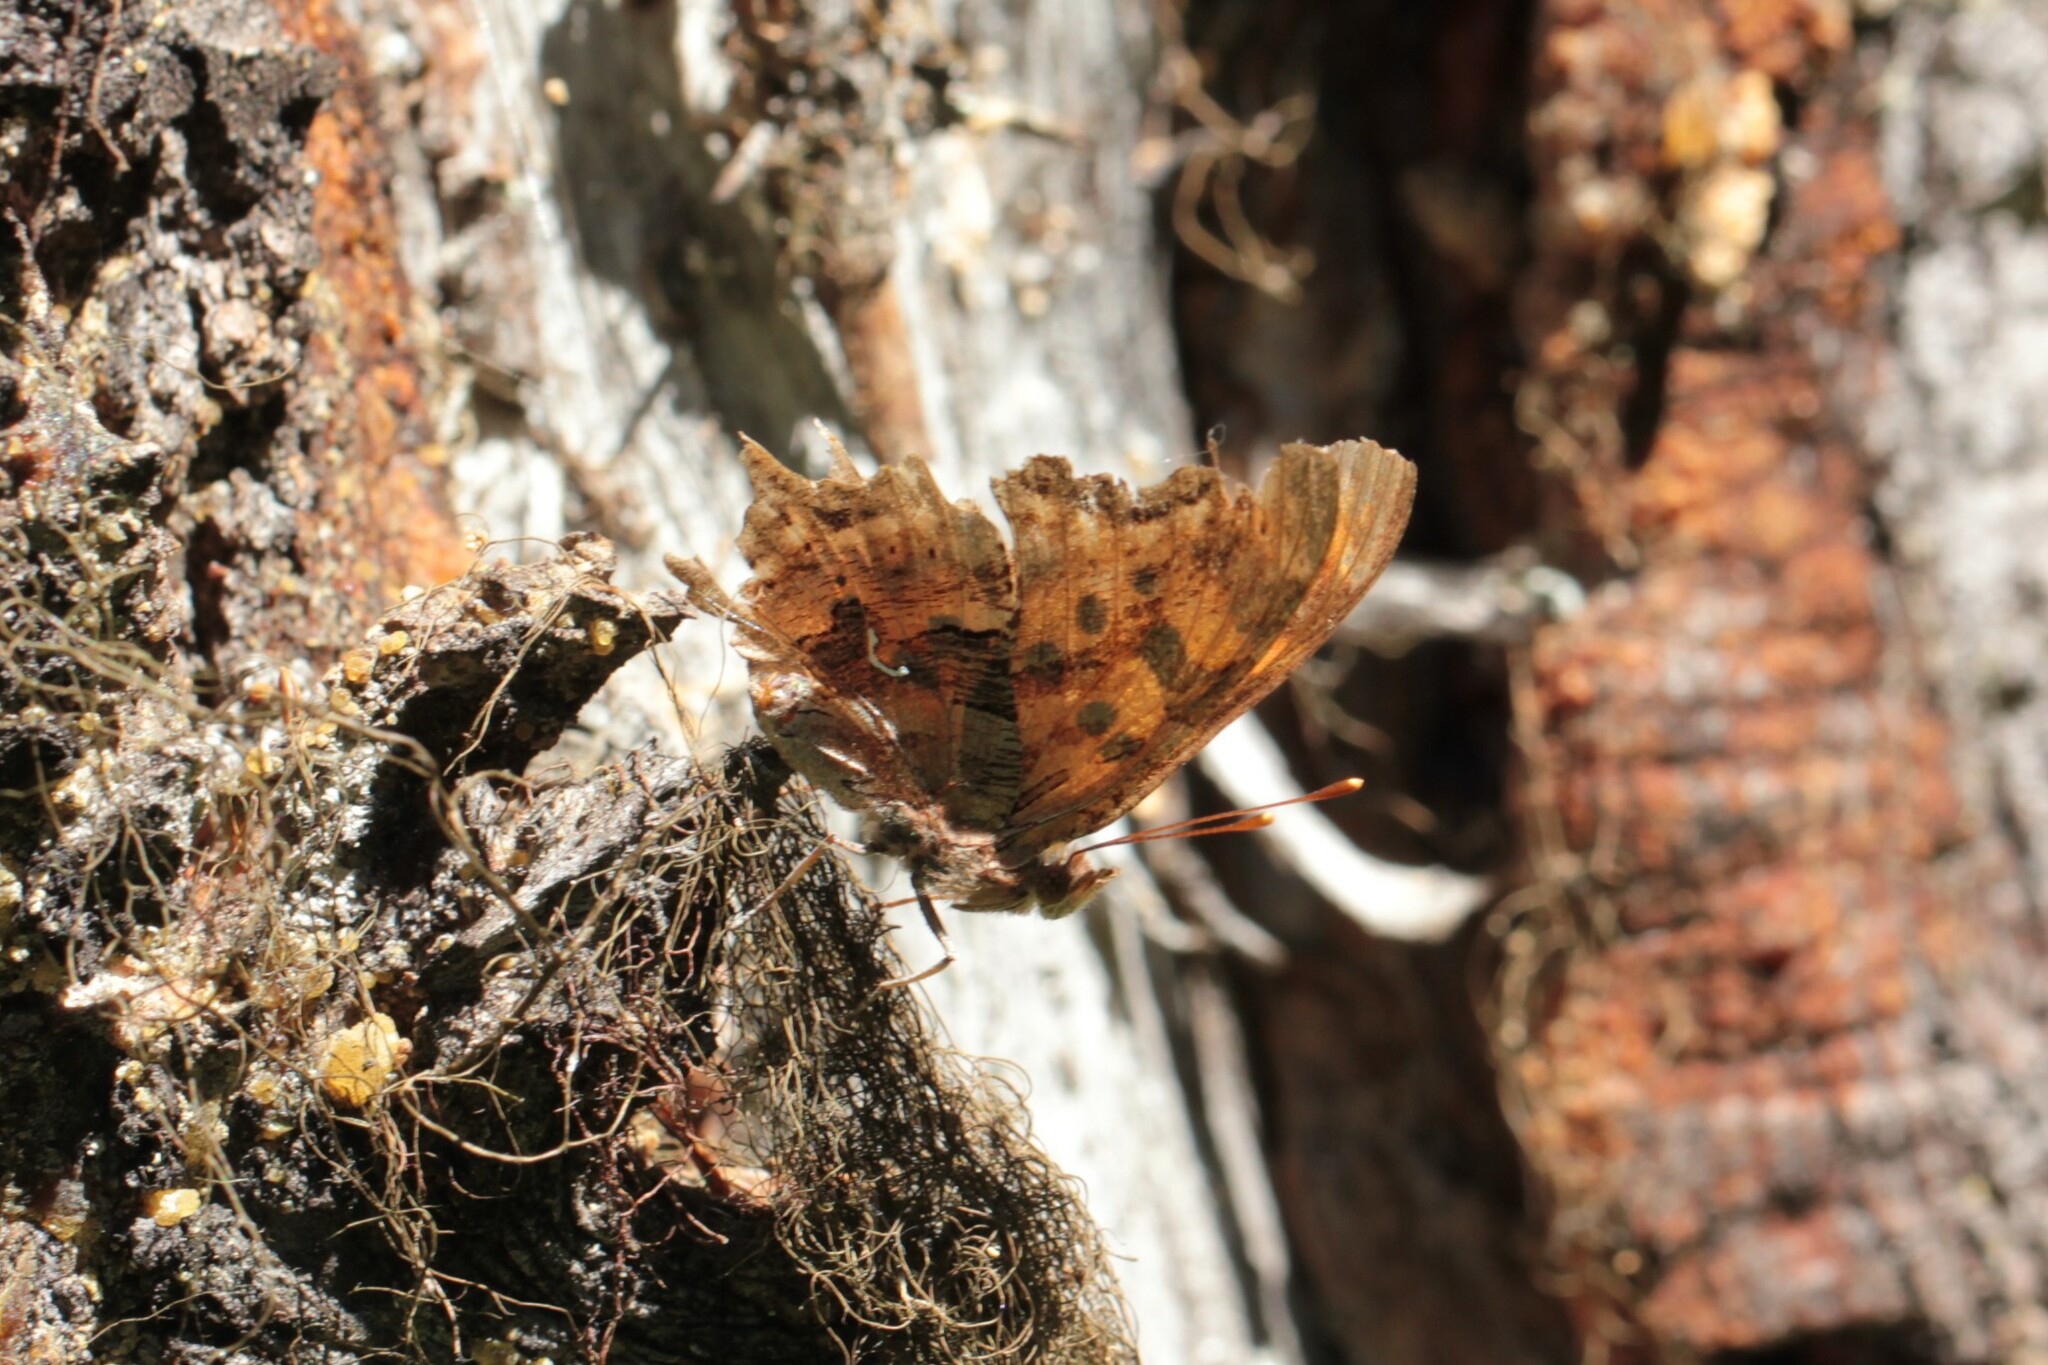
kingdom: Animalia
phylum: Arthropoda
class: Insecta
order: Lepidoptera
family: Nymphalidae
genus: Polygonia
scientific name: Polygonia satyrus
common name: Satyr angle wing
